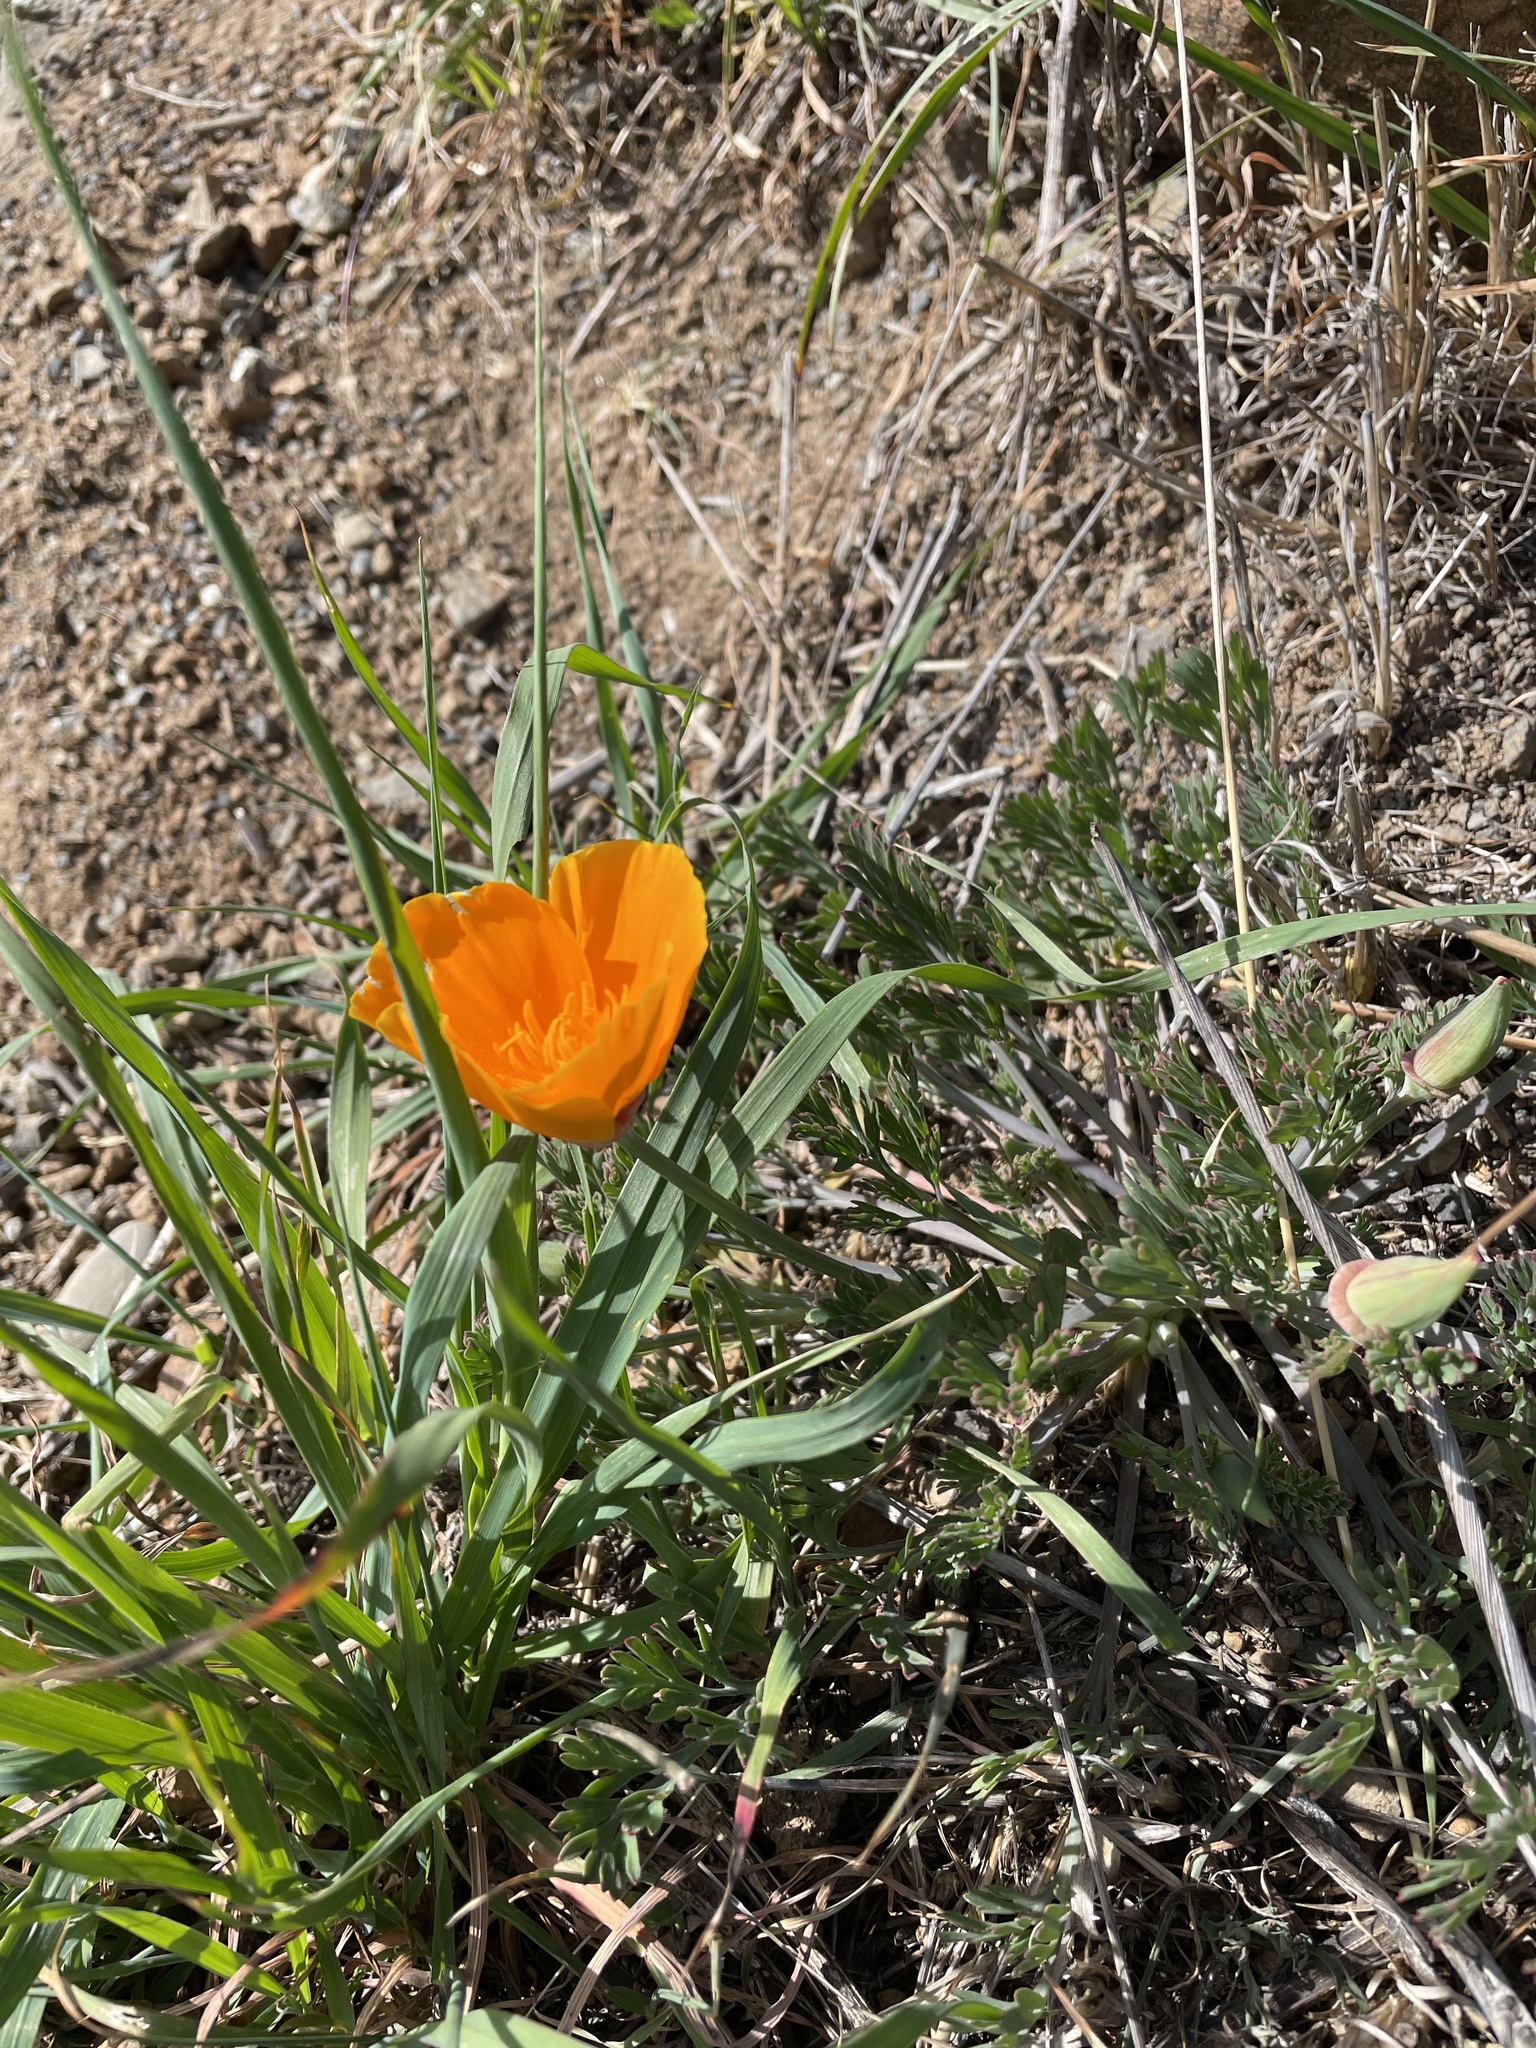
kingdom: Plantae
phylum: Tracheophyta
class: Magnoliopsida
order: Ranunculales
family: Papaveraceae
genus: Eschscholzia
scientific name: Eschscholzia californica
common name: California poppy
